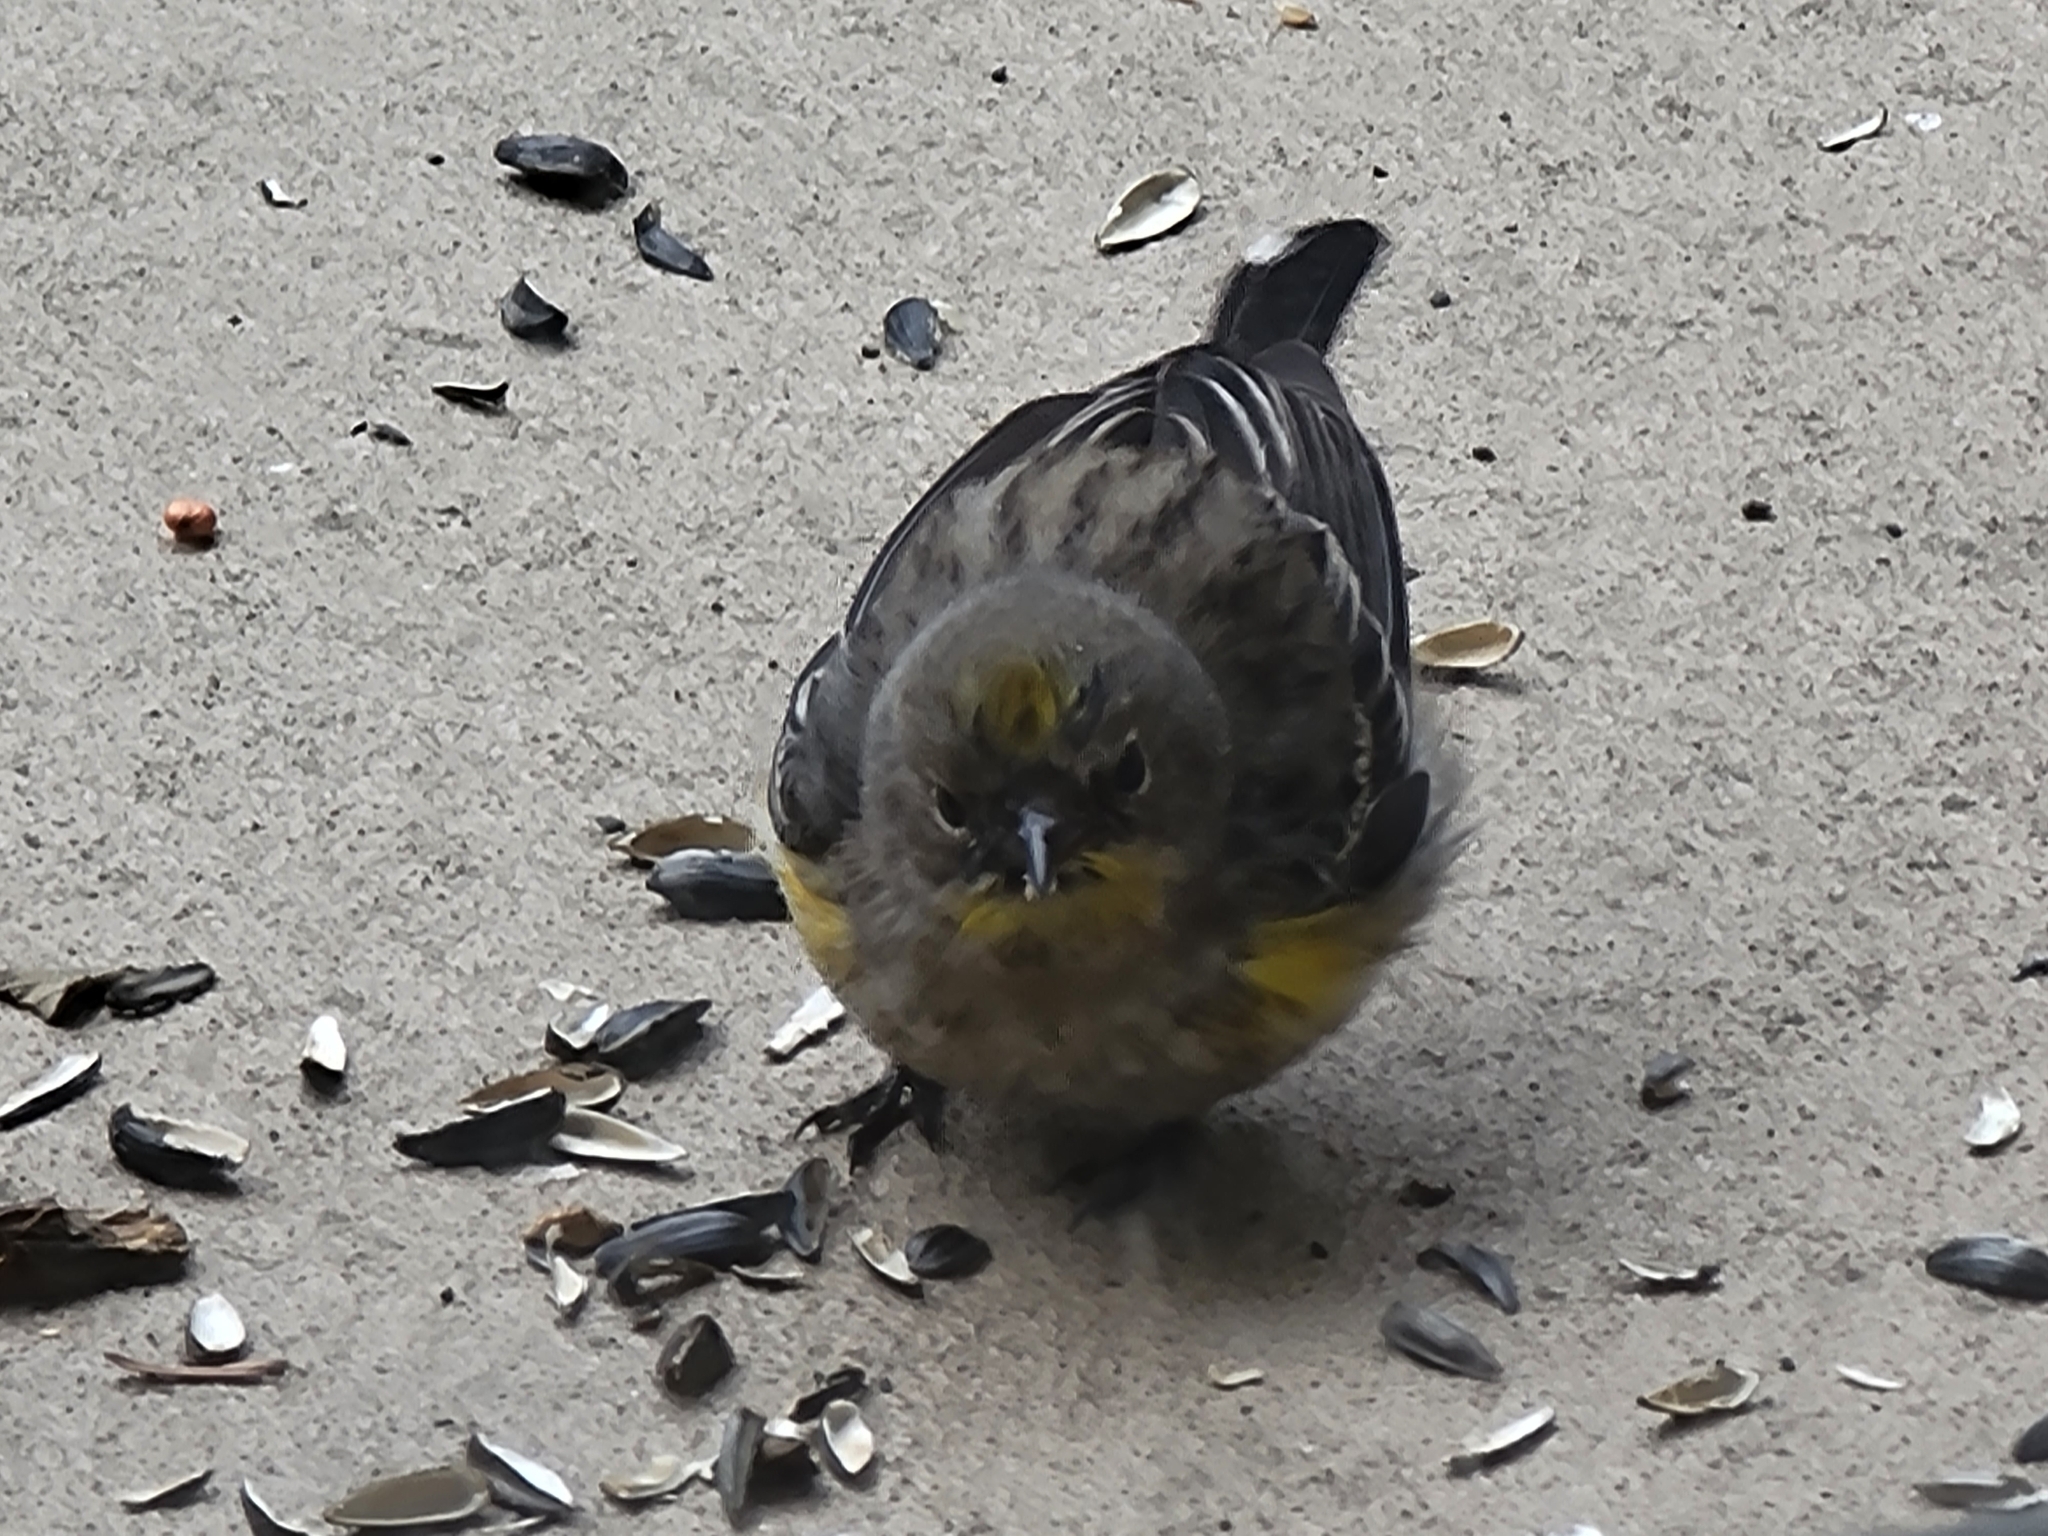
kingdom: Animalia
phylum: Chordata
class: Aves
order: Passeriformes
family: Parulidae
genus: Setophaga
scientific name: Setophaga auduboni
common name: Audubon's warbler
